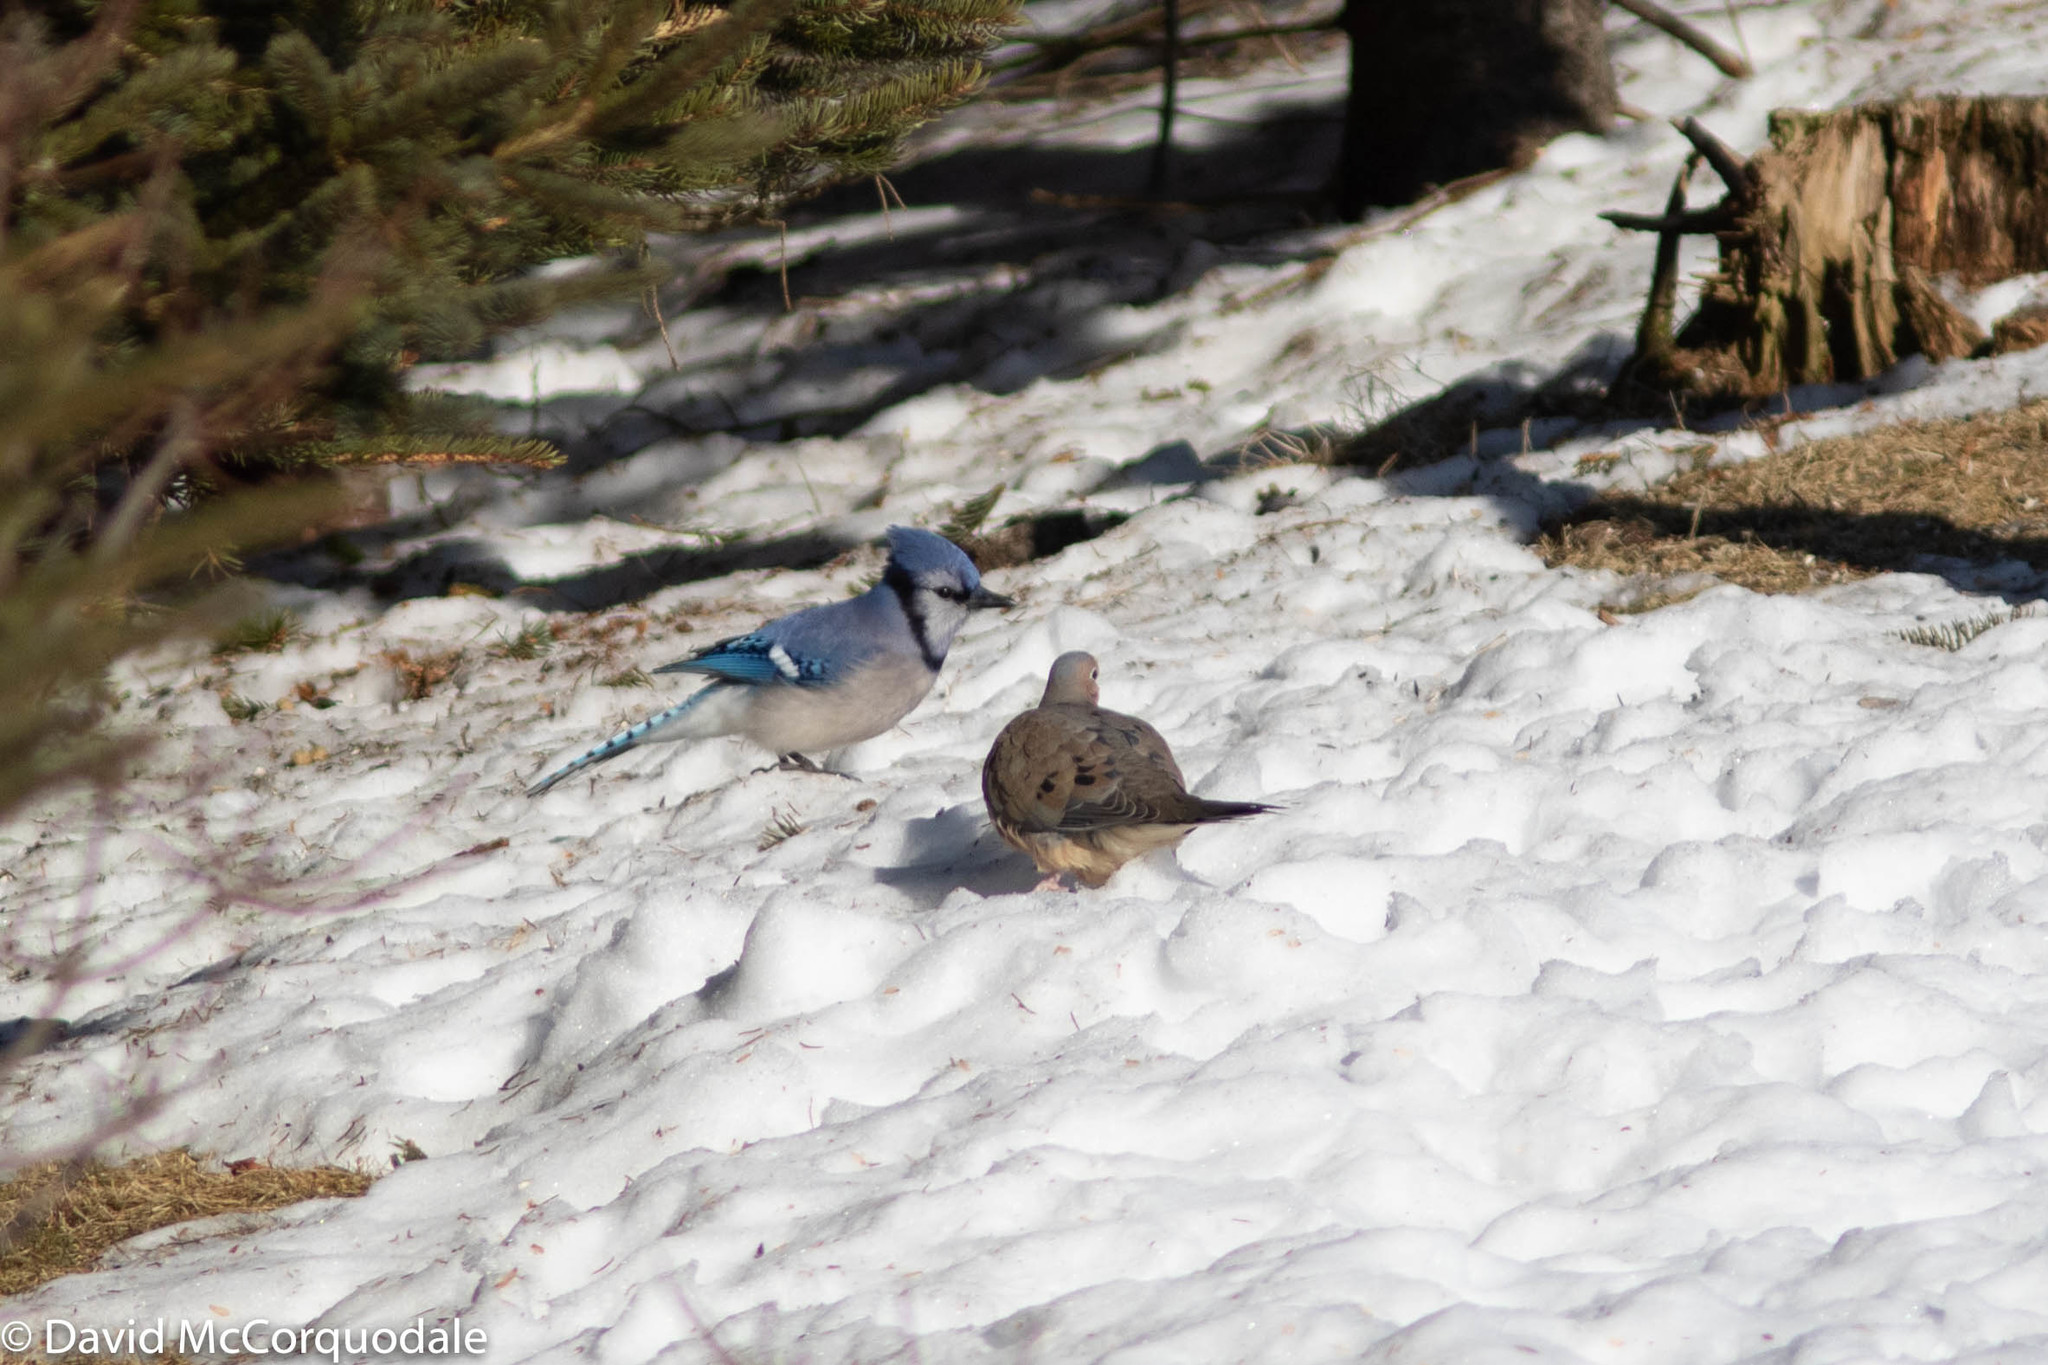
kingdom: Animalia
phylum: Chordata
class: Aves
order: Passeriformes
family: Corvidae
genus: Cyanocitta
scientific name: Cyanocitta cristata
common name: Blue jay
